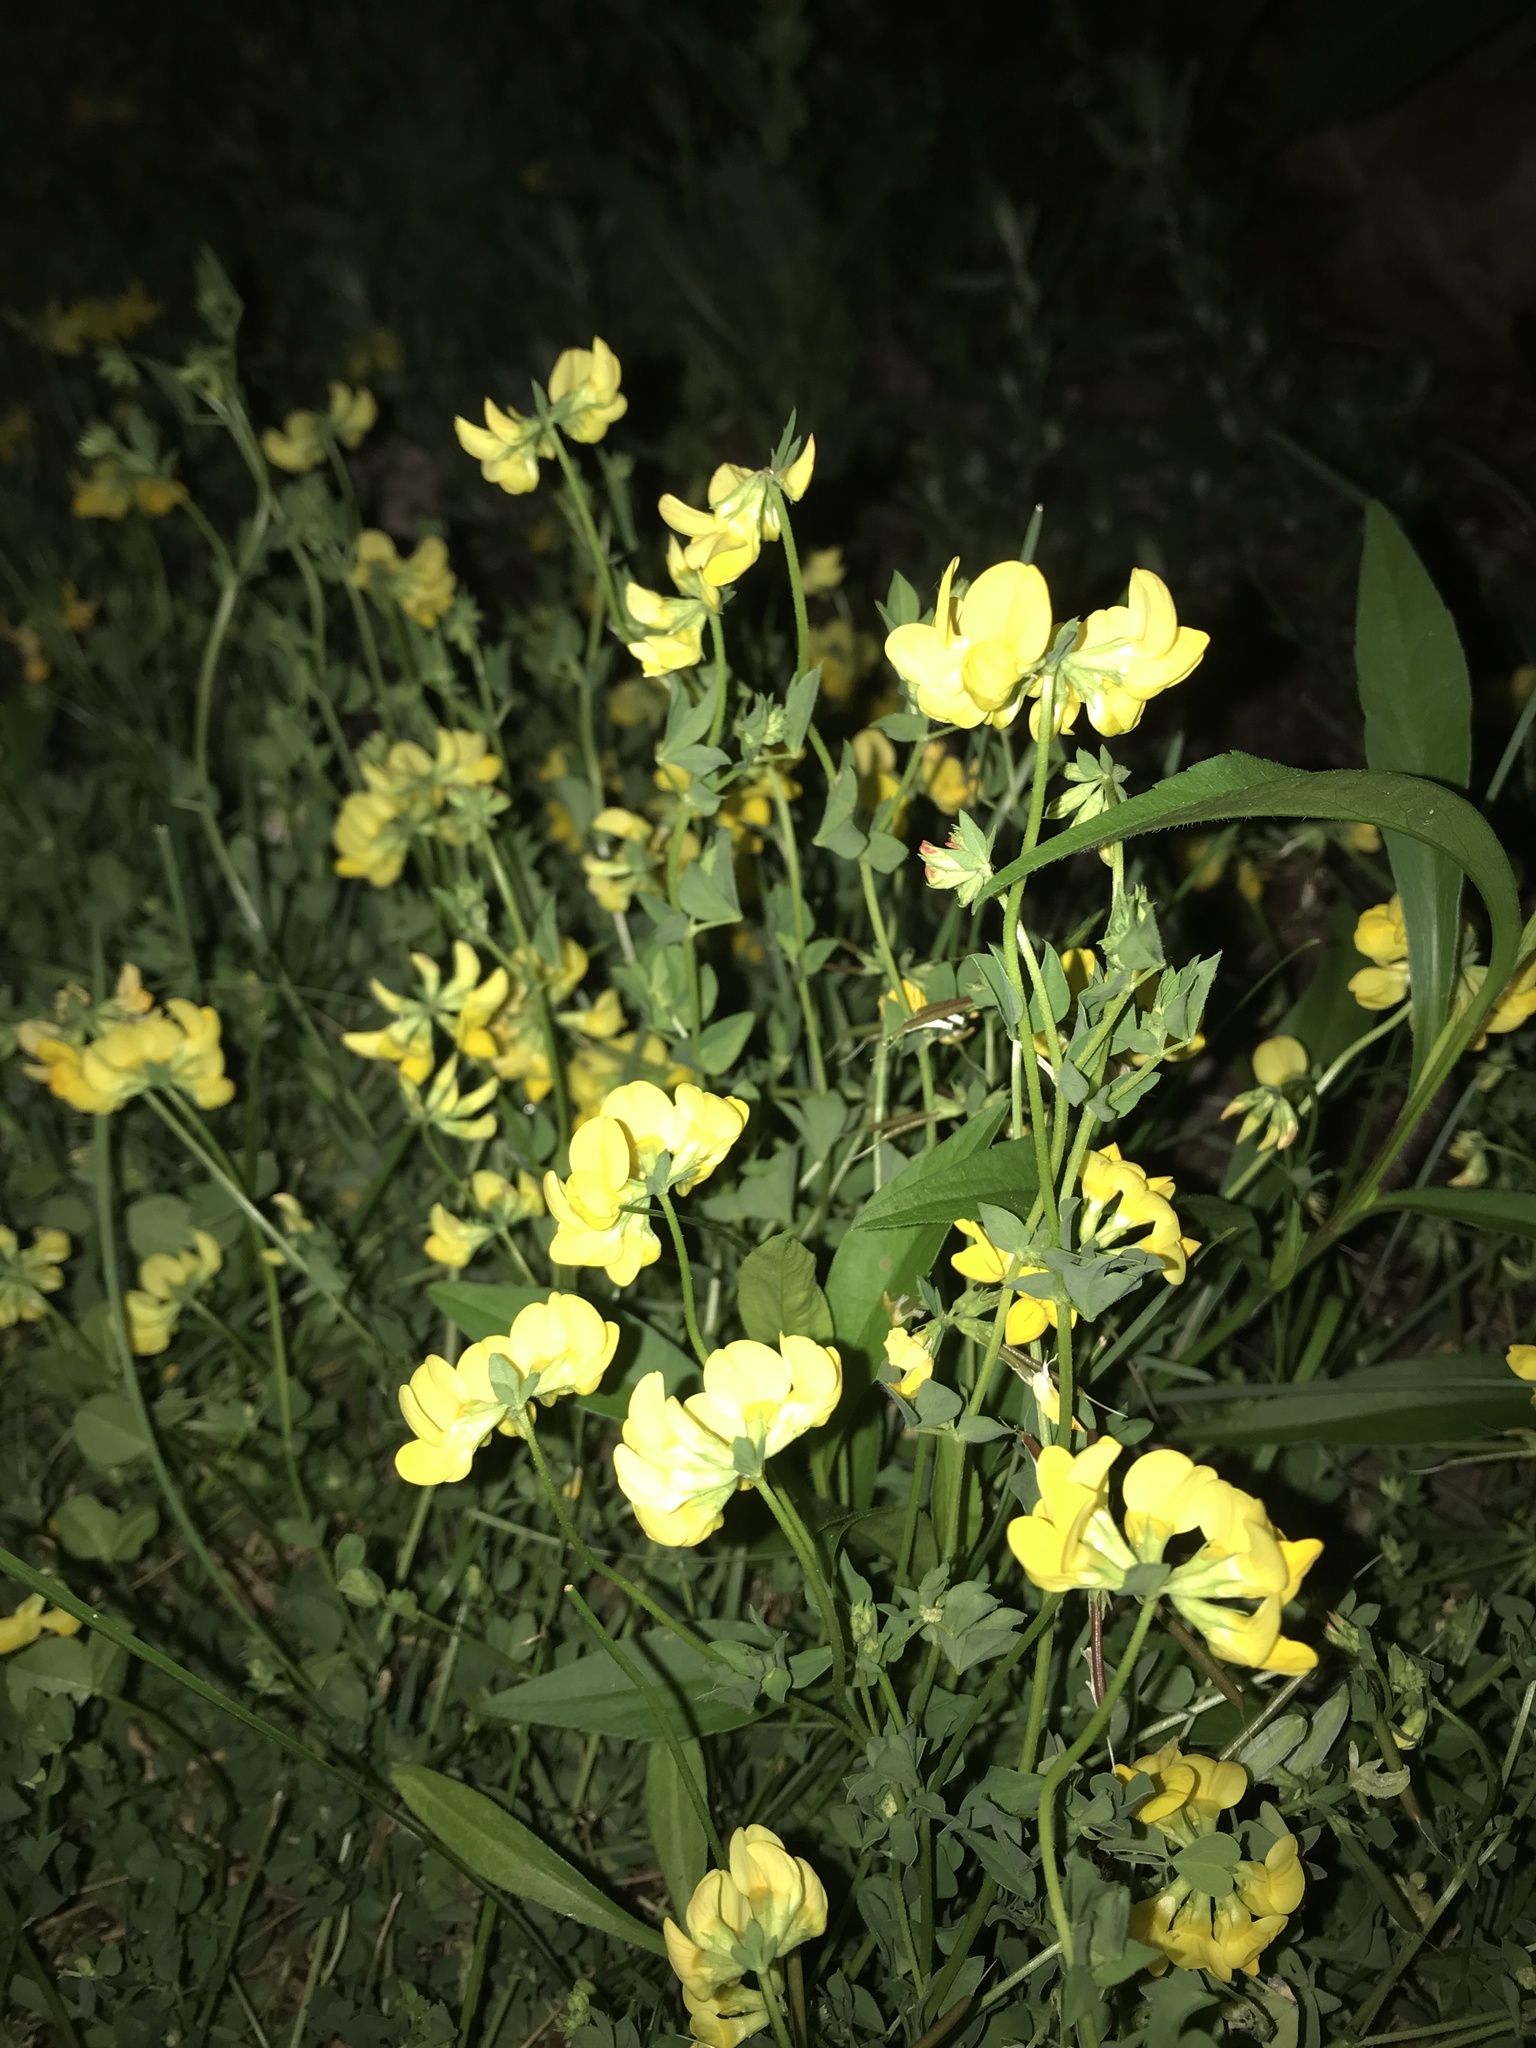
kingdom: Plantae
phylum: Tracheophyta
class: Magnoliopsida
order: Fabales
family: Fabaceae
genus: Lotus
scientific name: Lotus corniculatus
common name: Common bird's-foot-trefoil
